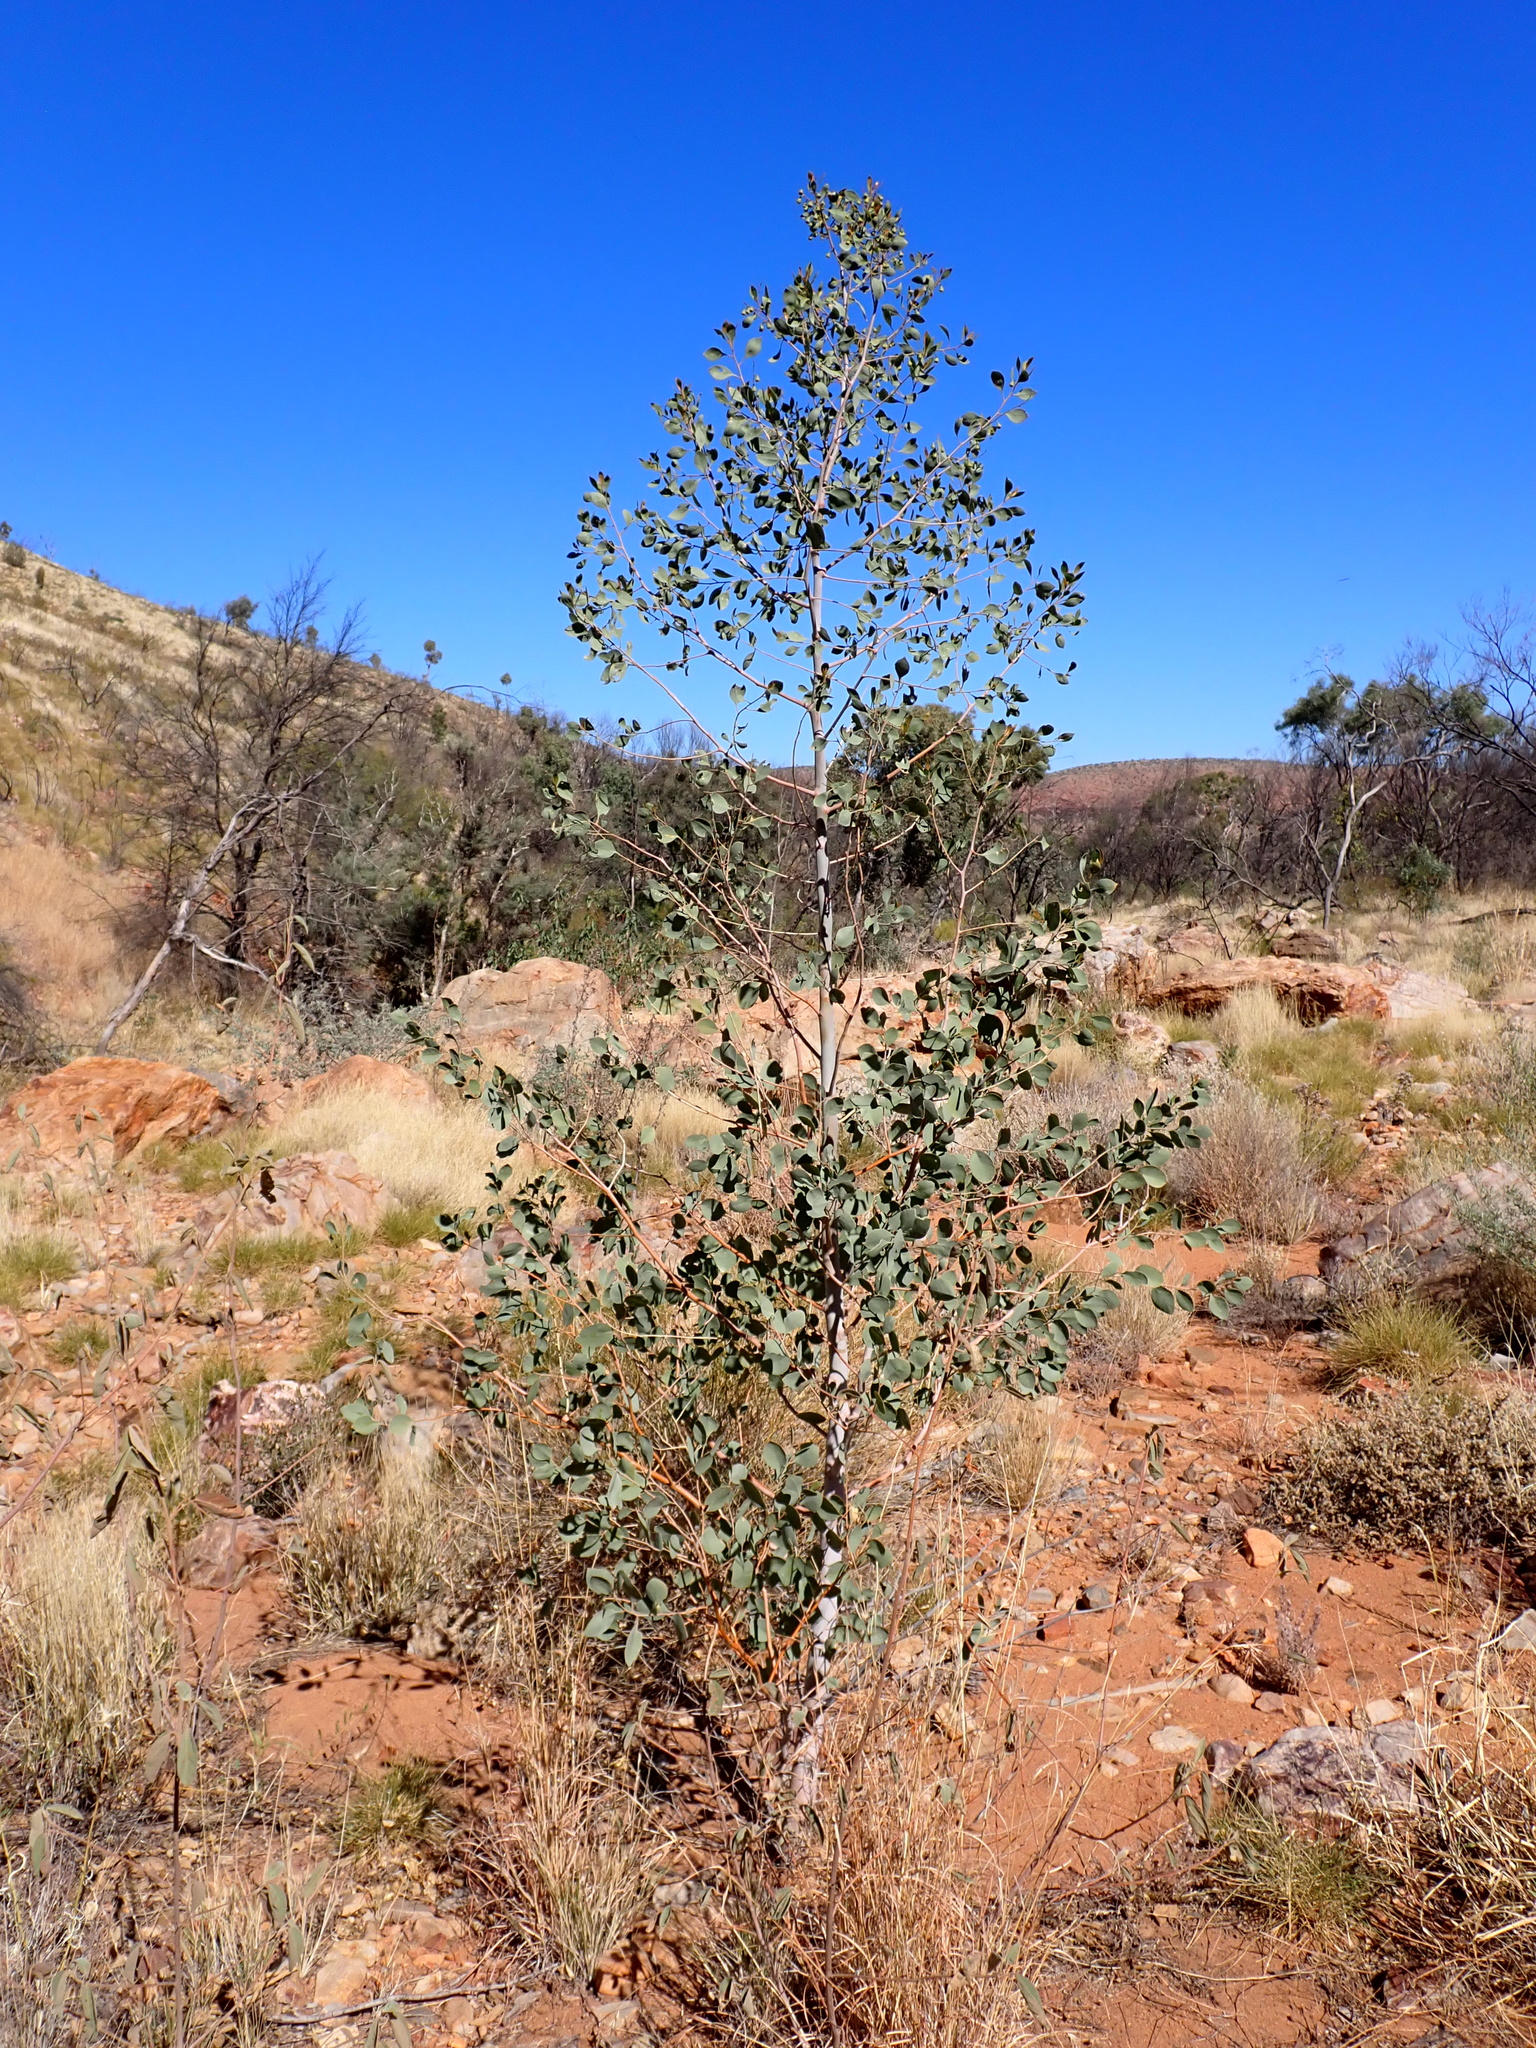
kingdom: Plantae
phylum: Tracheophyta
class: Magnoliopsida
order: Brassicales
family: Gyrostemonaceae
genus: Codonocarpus
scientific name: Codonocarpus cotinifolius
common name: Mustardtree
